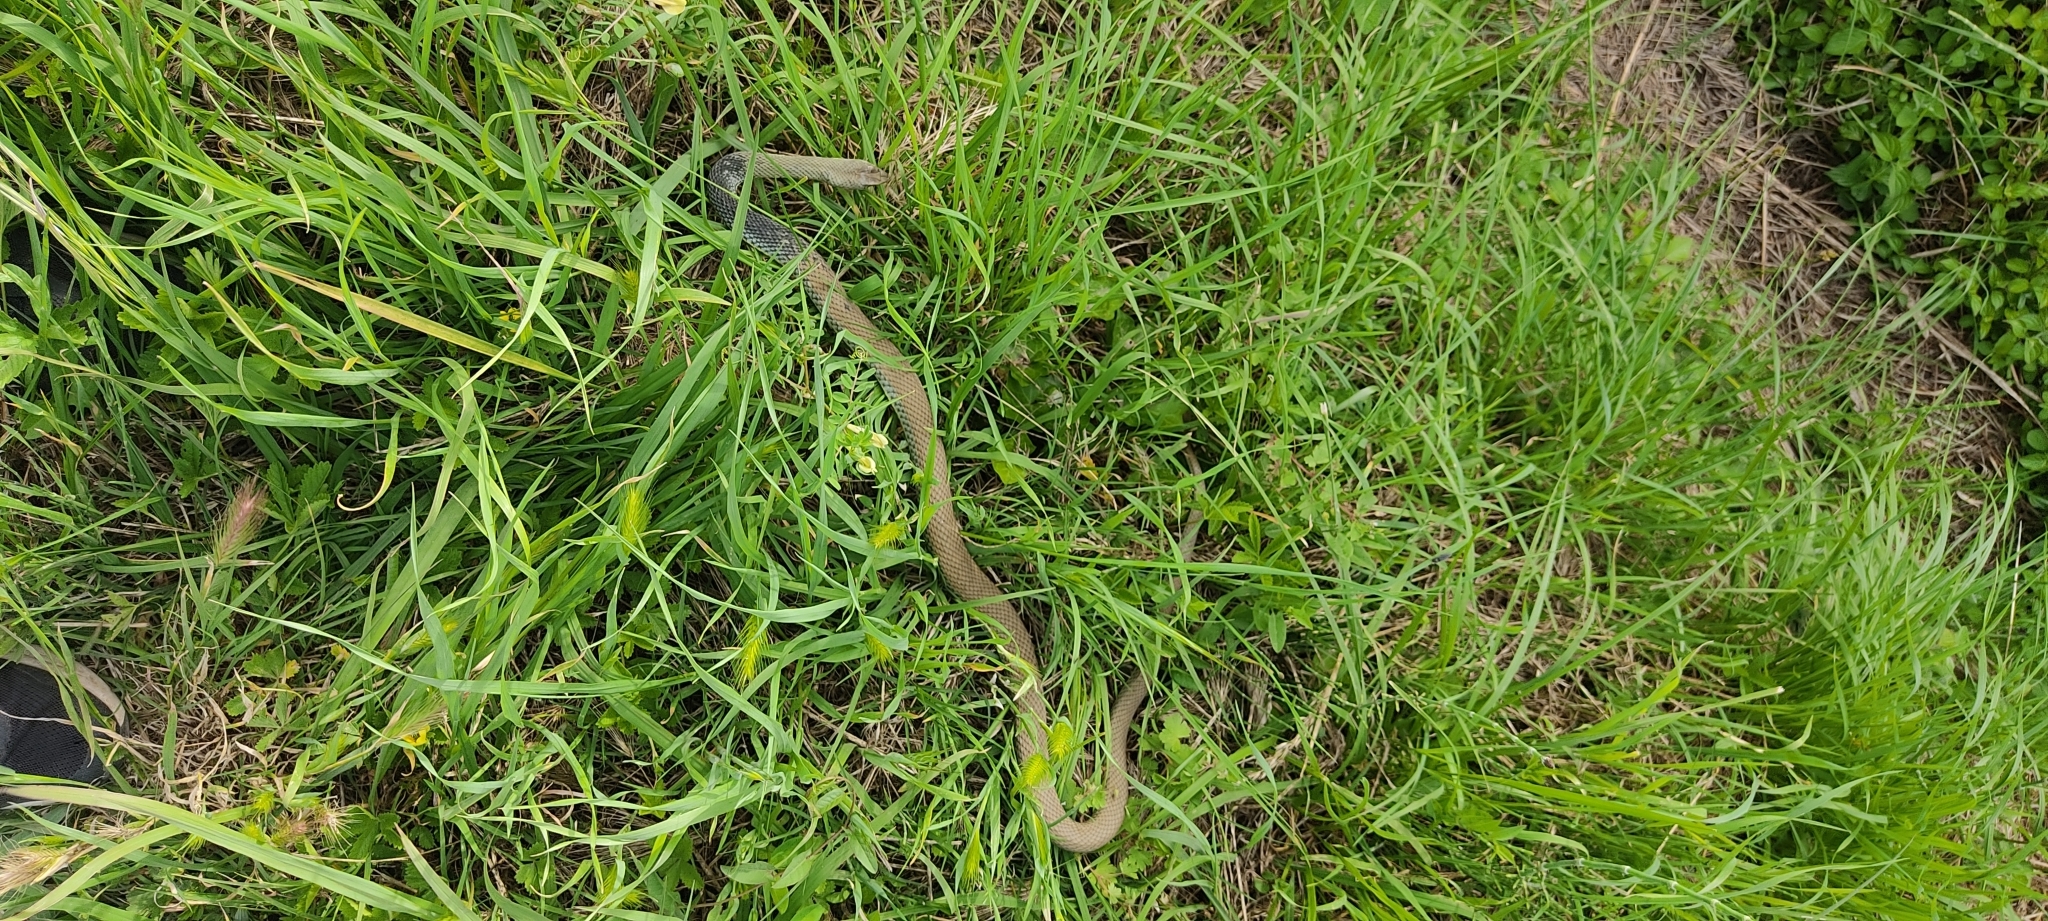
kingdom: Animalia
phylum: Chordata
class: Squamata
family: Psammophiidae
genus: Malpolon
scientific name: Malpolon monspessulanus
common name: Montpellier snake
